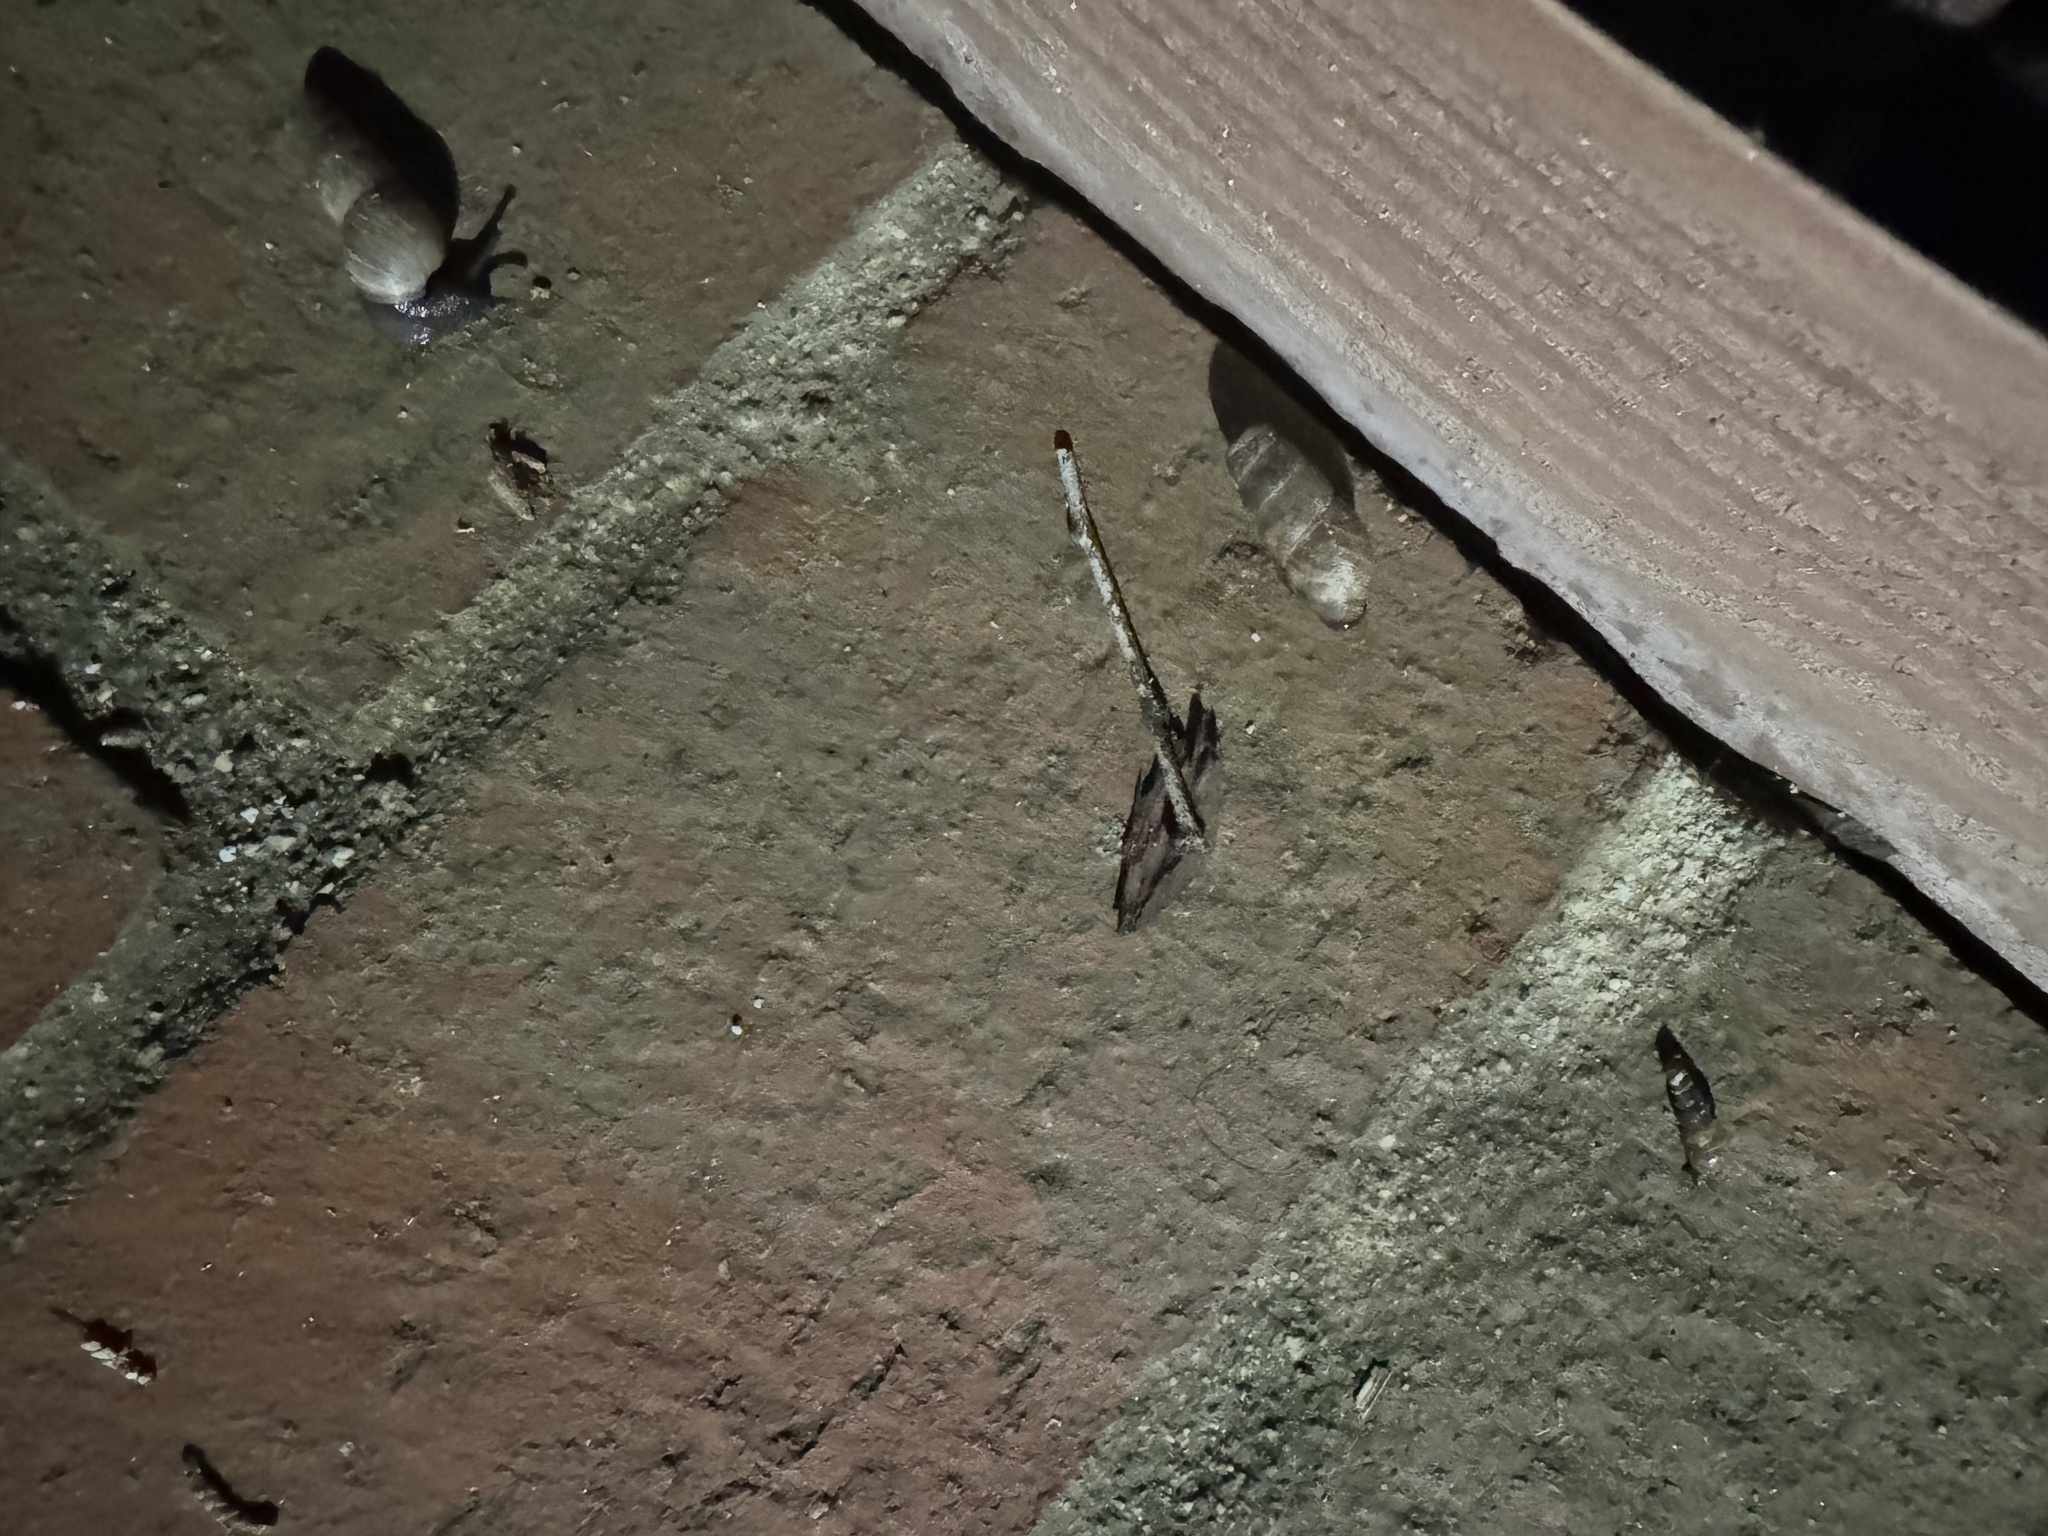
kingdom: Animalia
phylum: Mollusca
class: Gastropoda
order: Stylommatophora
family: Achatinidae
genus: Rumina
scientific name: Rumina decollata
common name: Decollate snail
